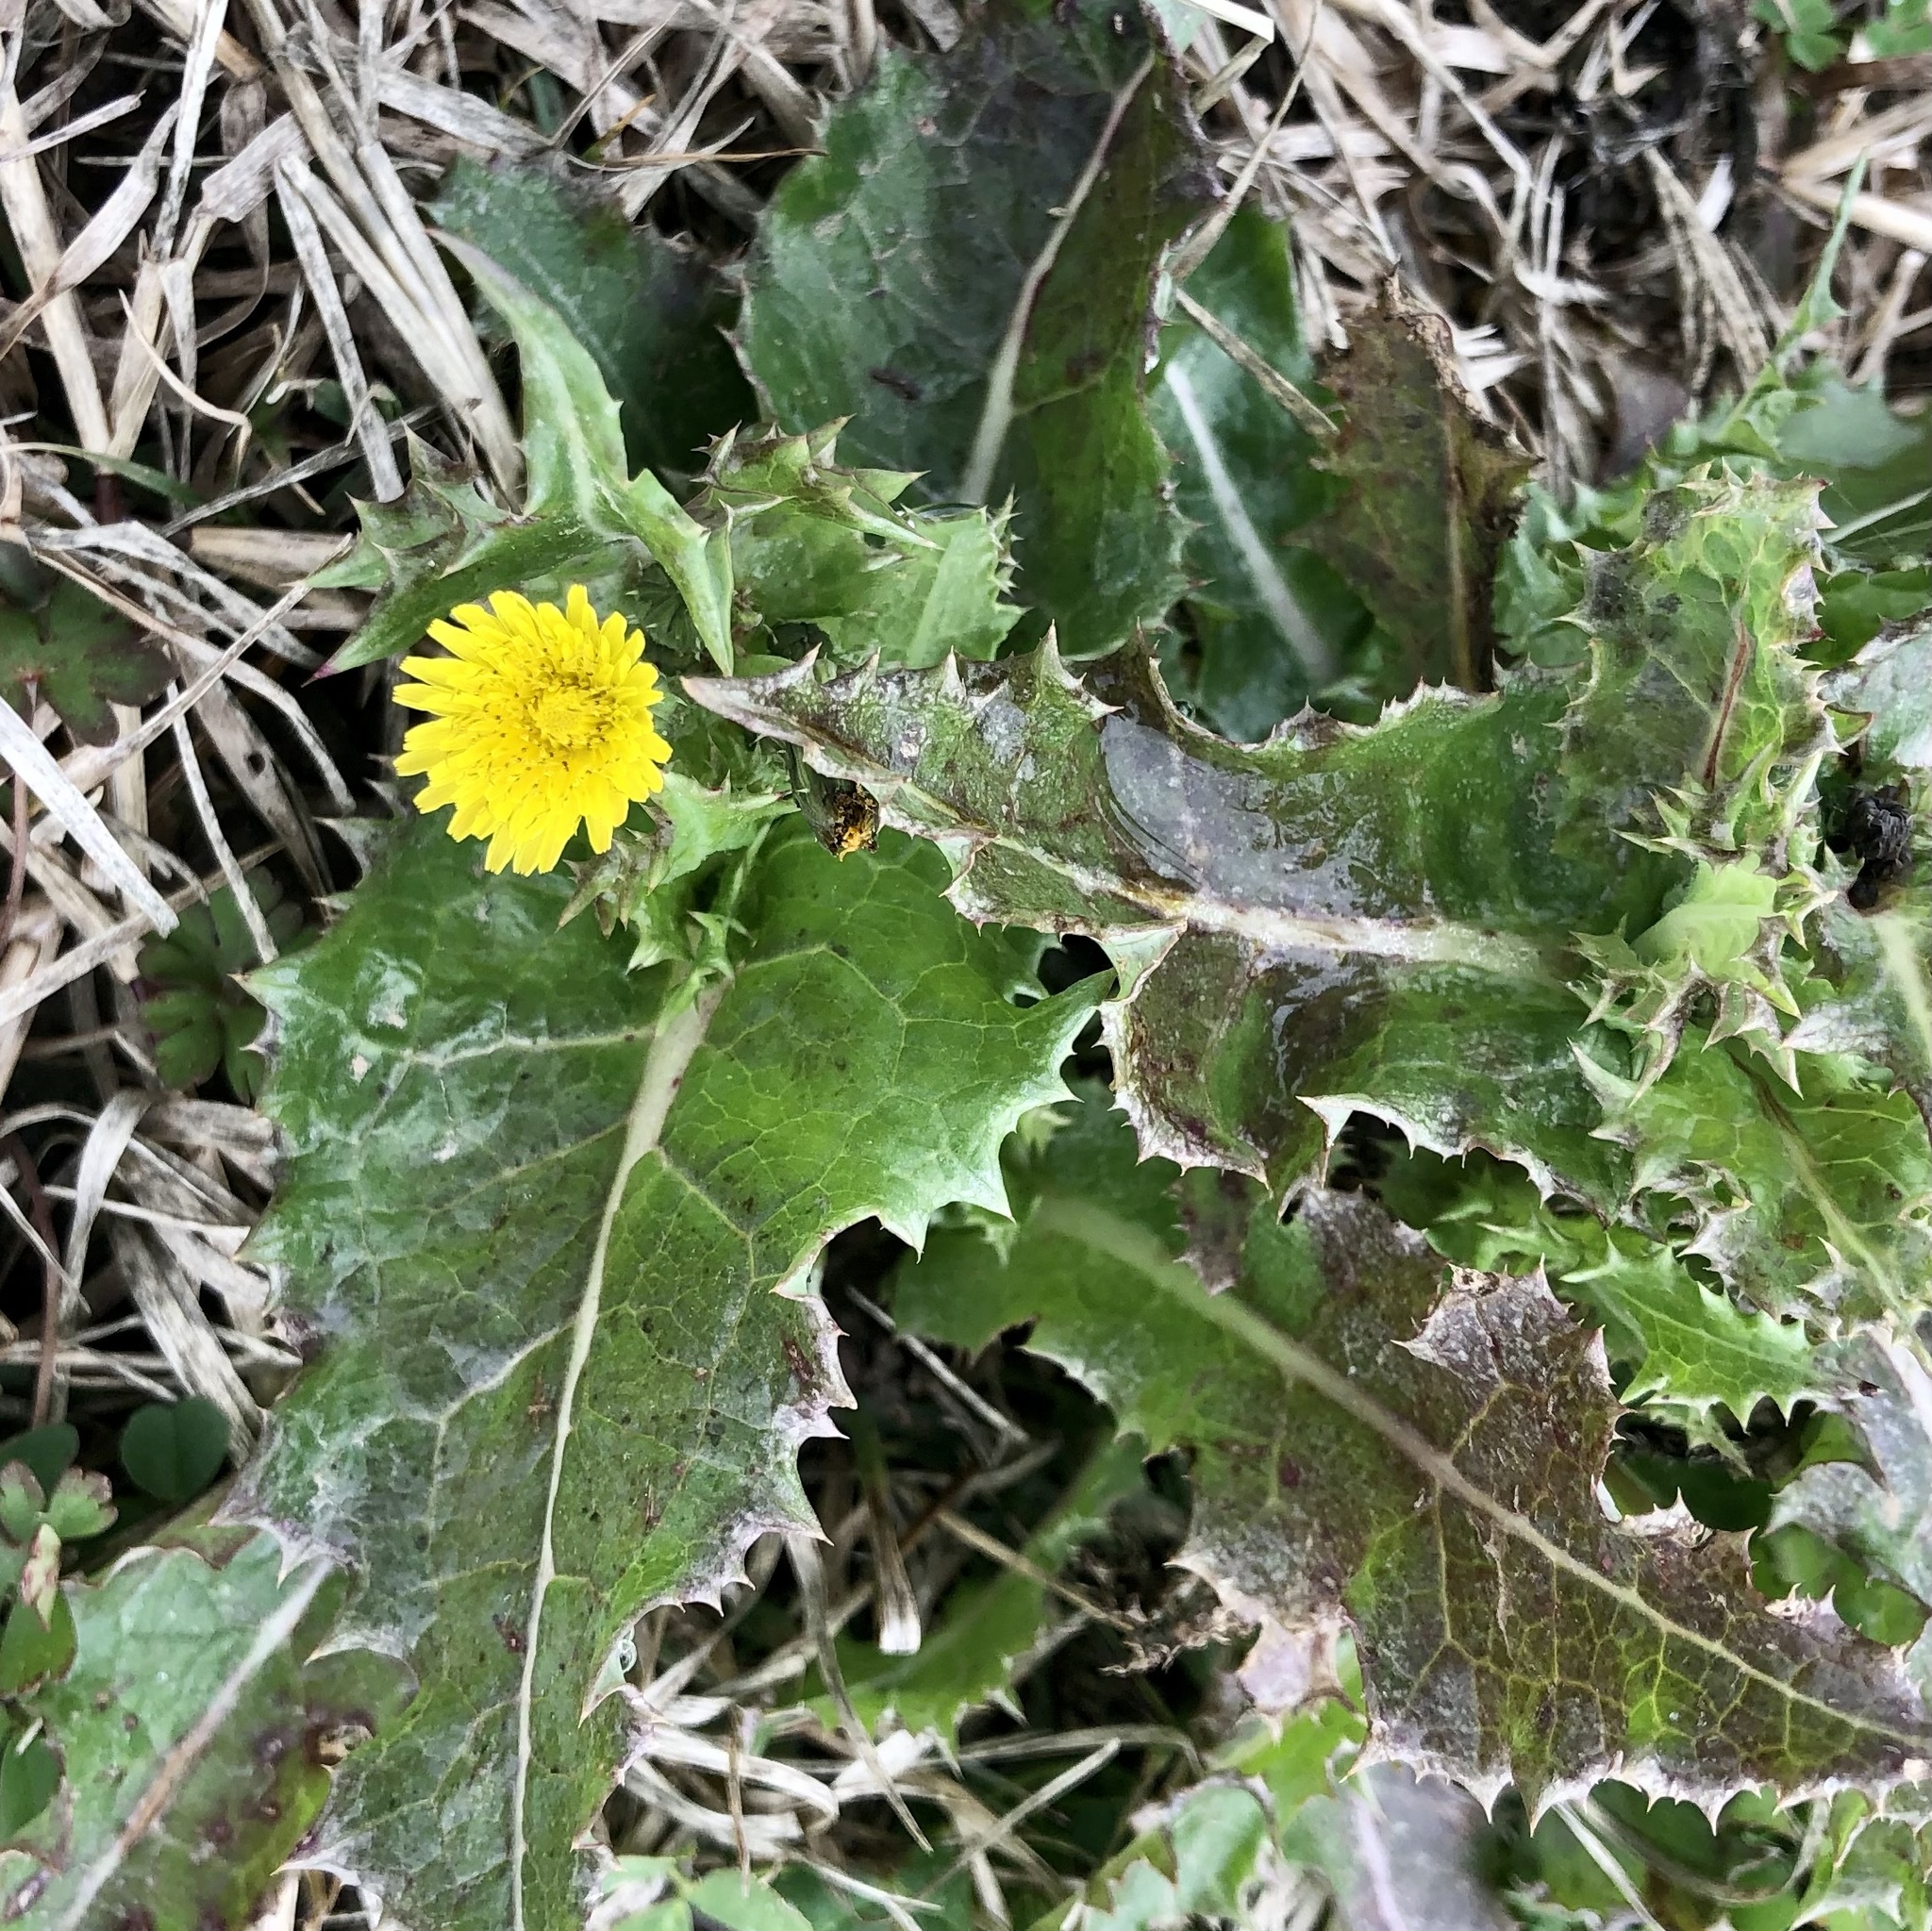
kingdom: Plantae
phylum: Tracheophyta
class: Magnoliopsida
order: Asterales
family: Asteraceae
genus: Sonchus
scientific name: Sonchus asper
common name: Prickly sow-thistle
